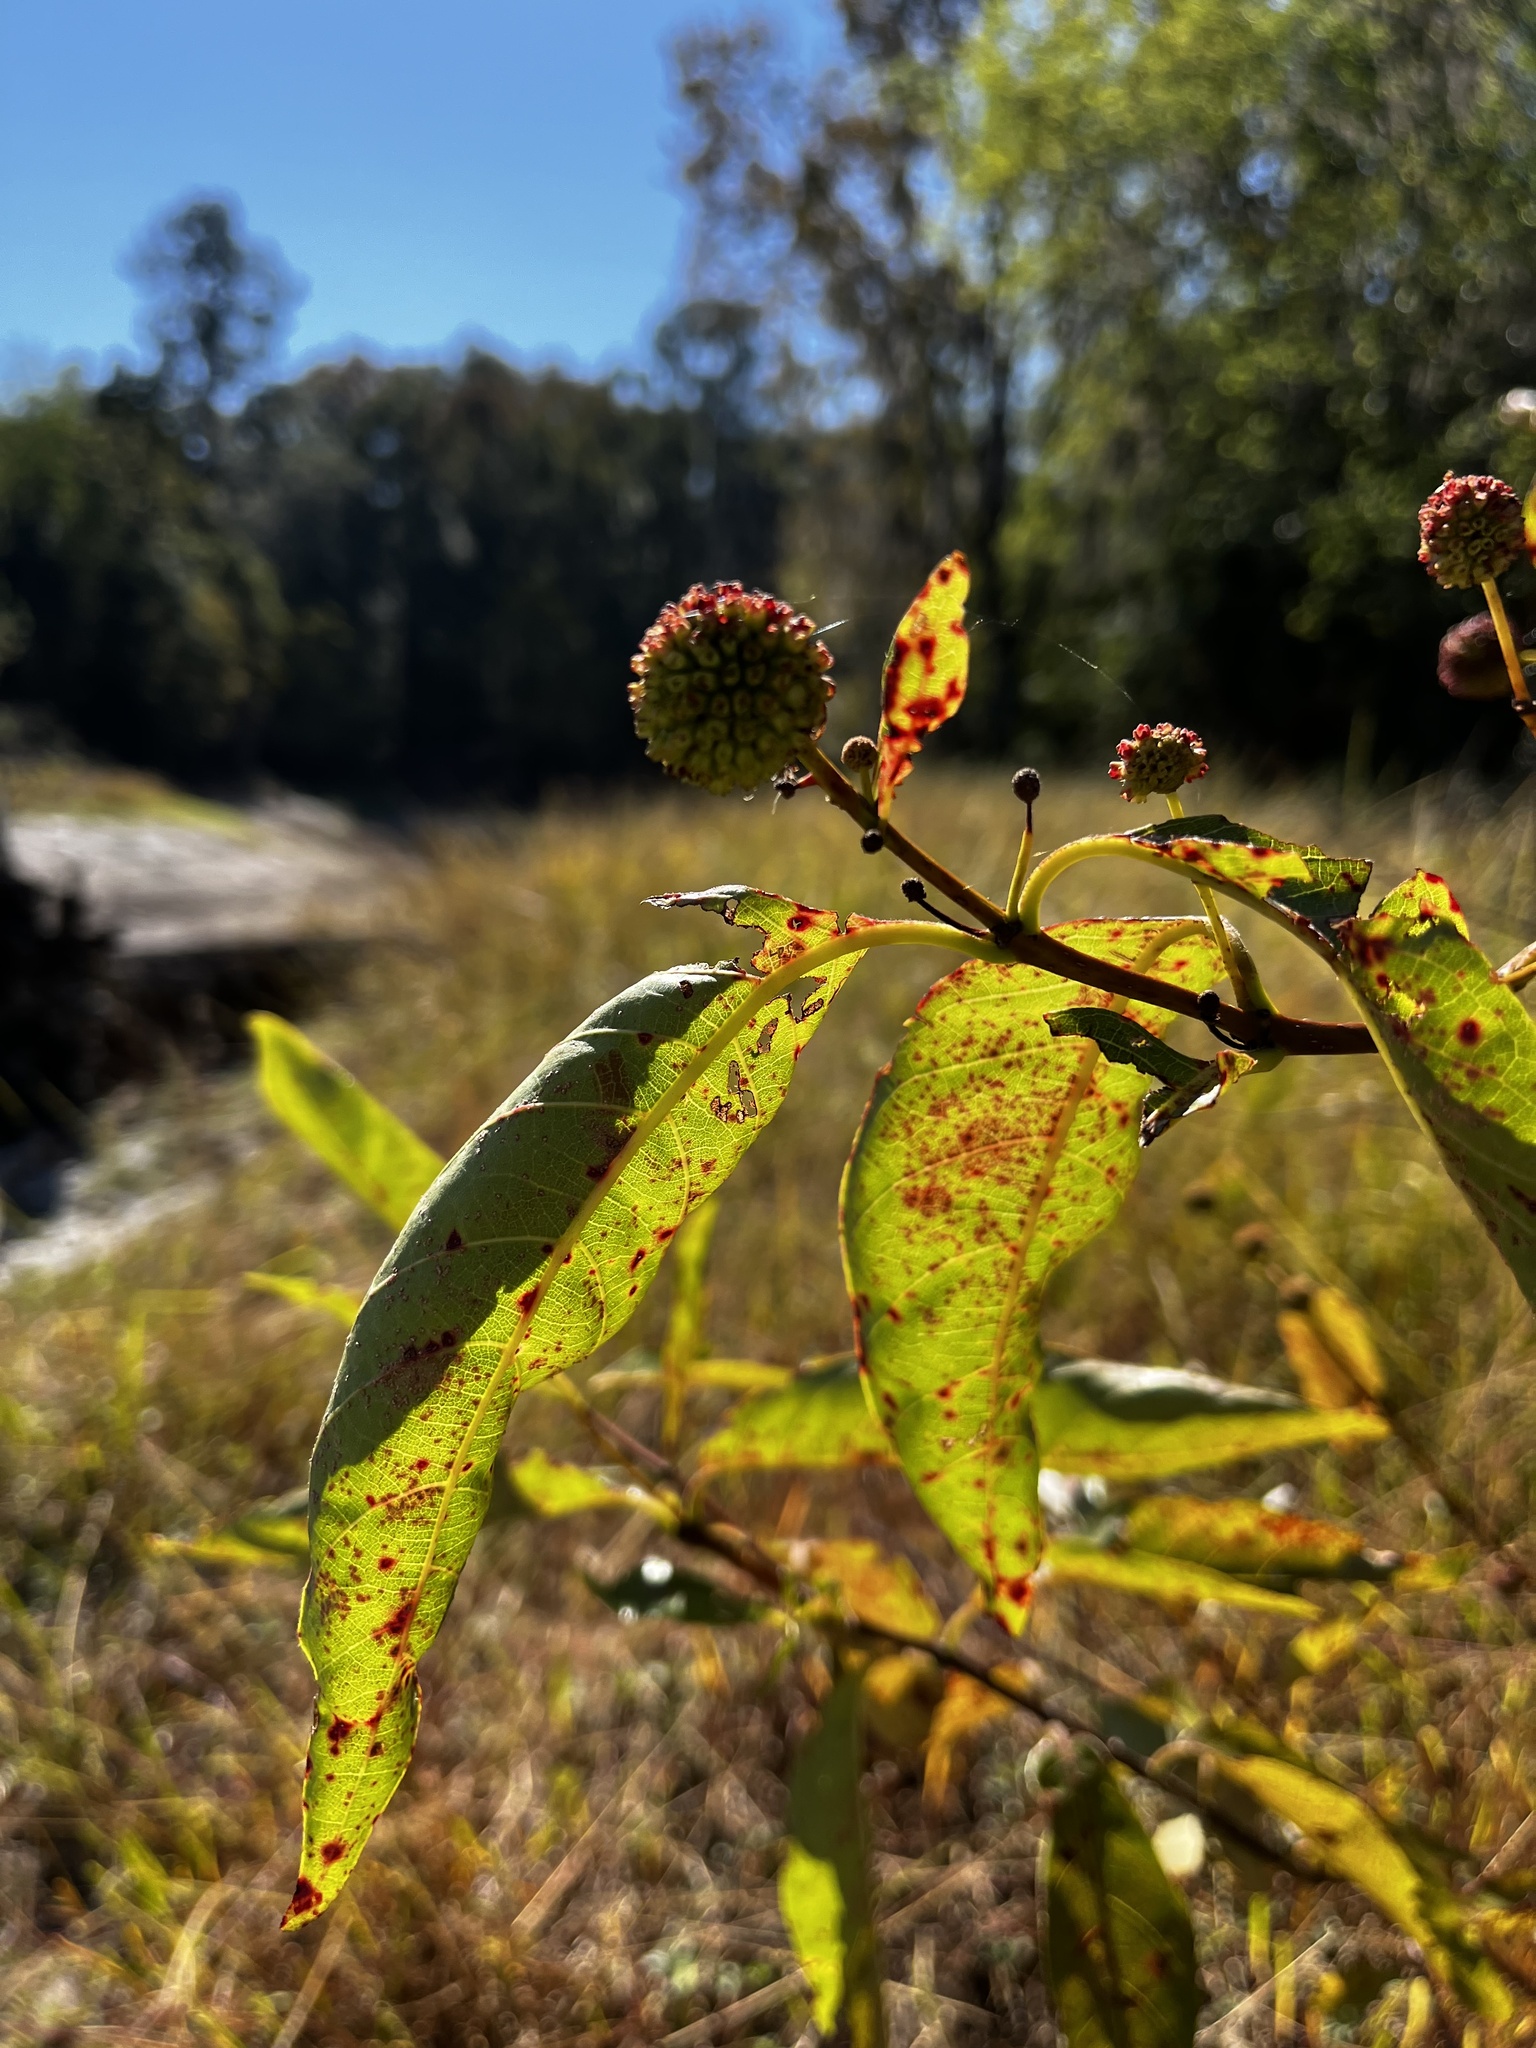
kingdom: Plantae
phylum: Tracheophyta
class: Magnoliopsida
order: Gentianales
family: Rubiaceae
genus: Cephalanthus
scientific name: Cephalanthus occidentalis
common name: Button-willow
